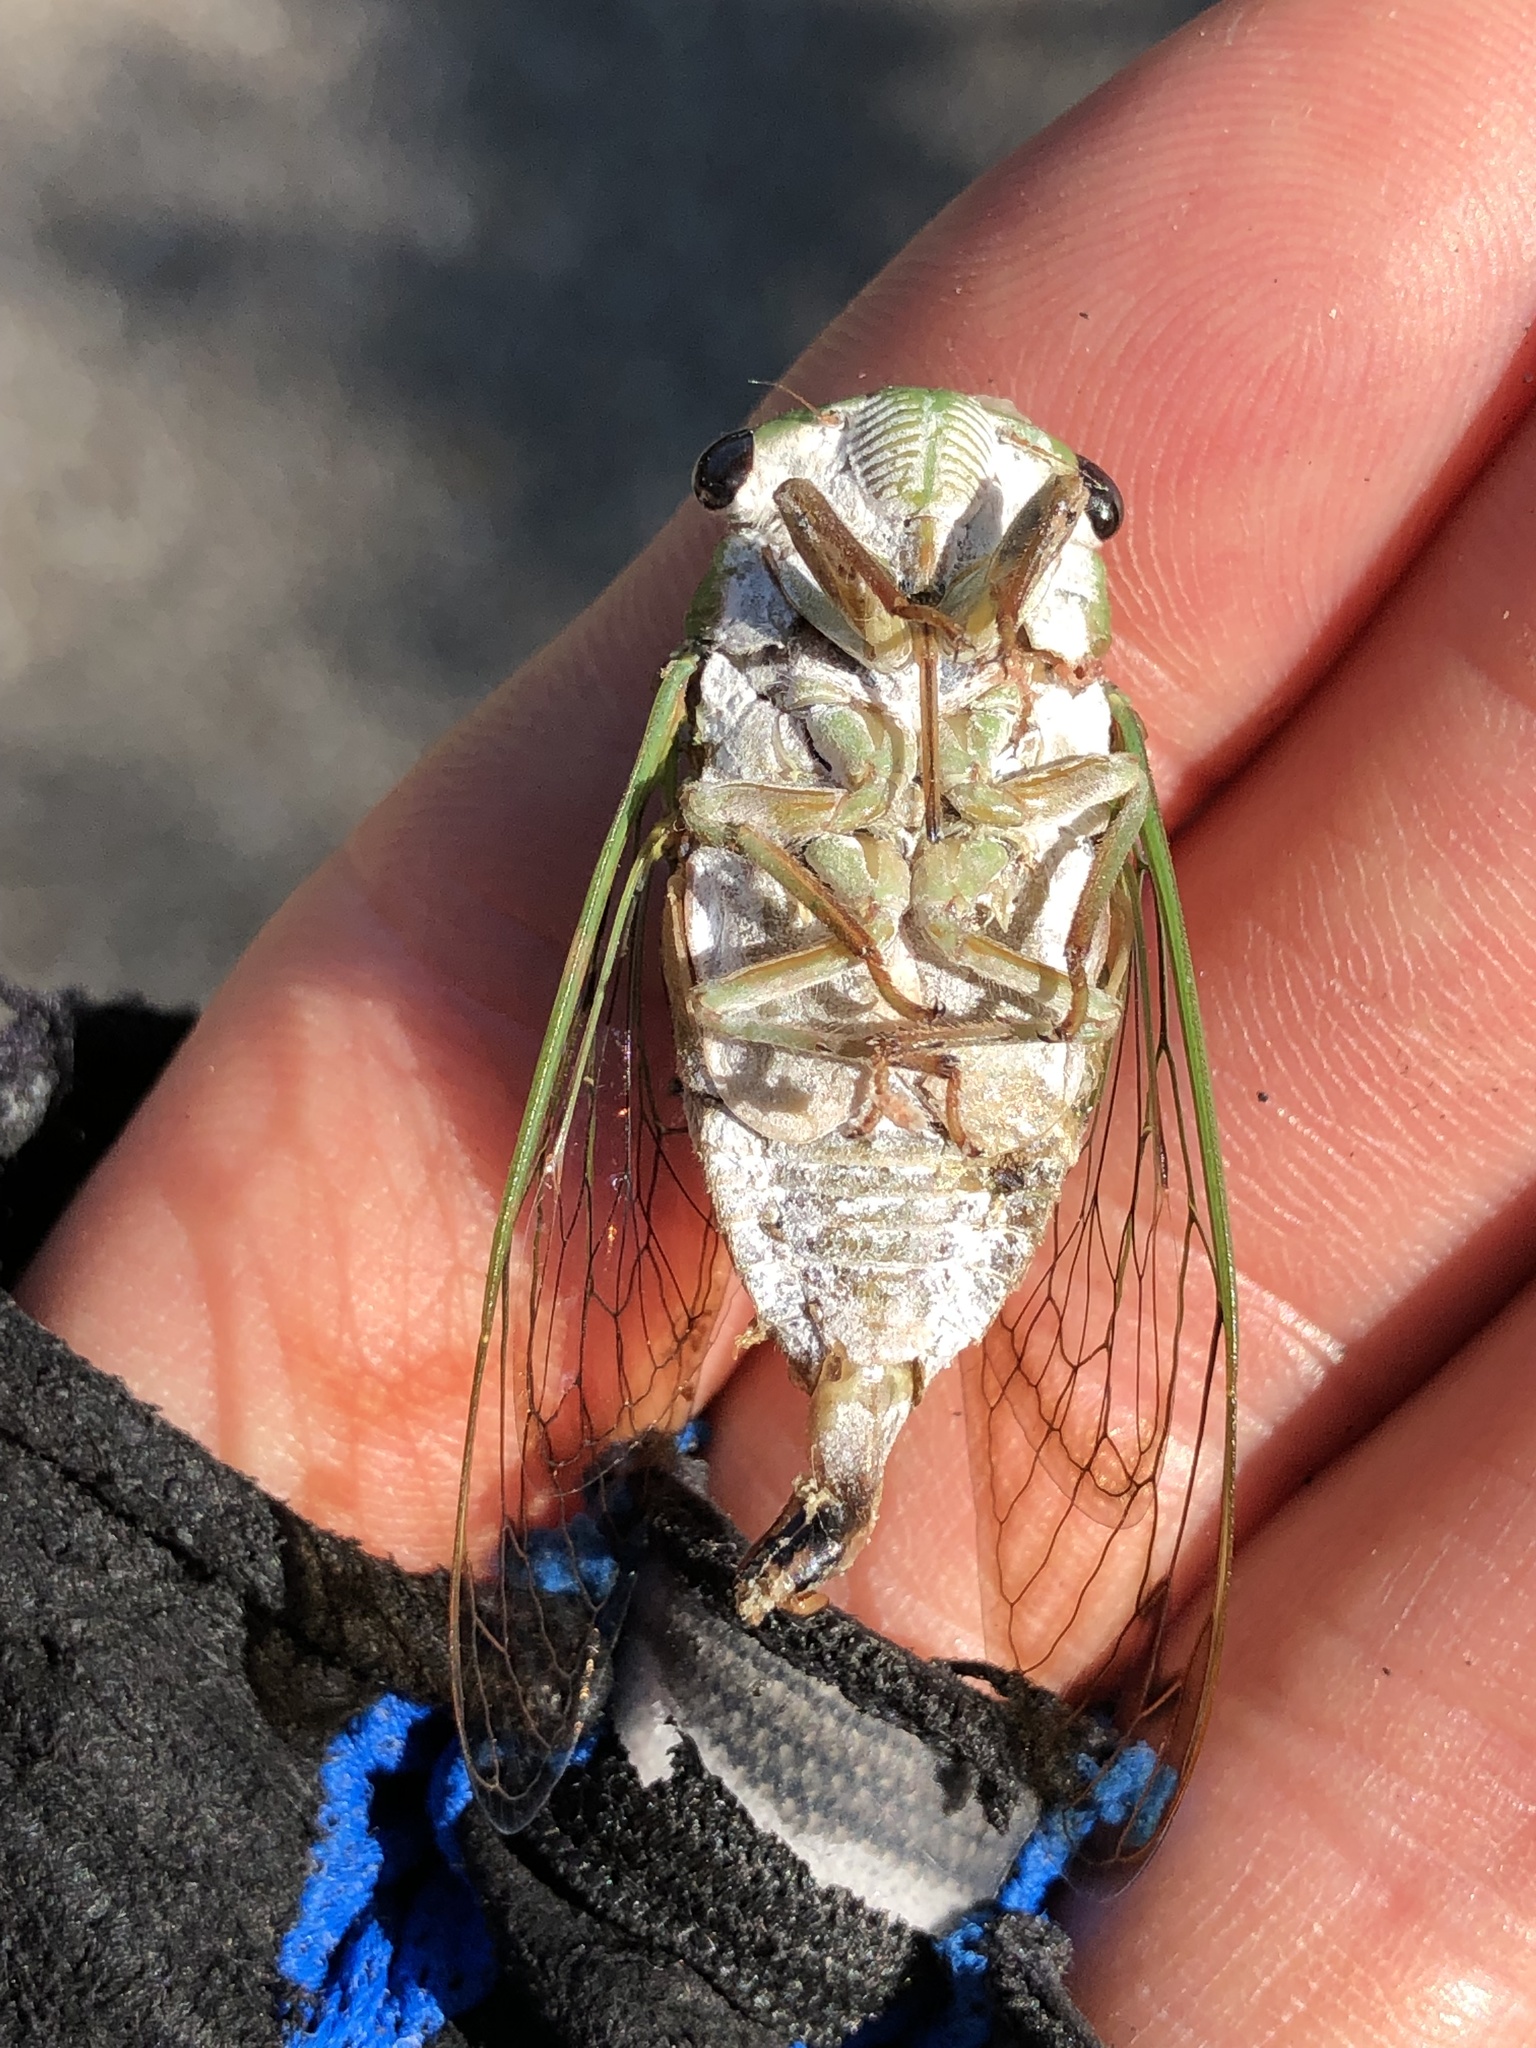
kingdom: Animalia
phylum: Arthropoda
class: Insecta
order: Hemiptera
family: Cicadidae
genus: Neotibicen
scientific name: Neotibicen superbus
